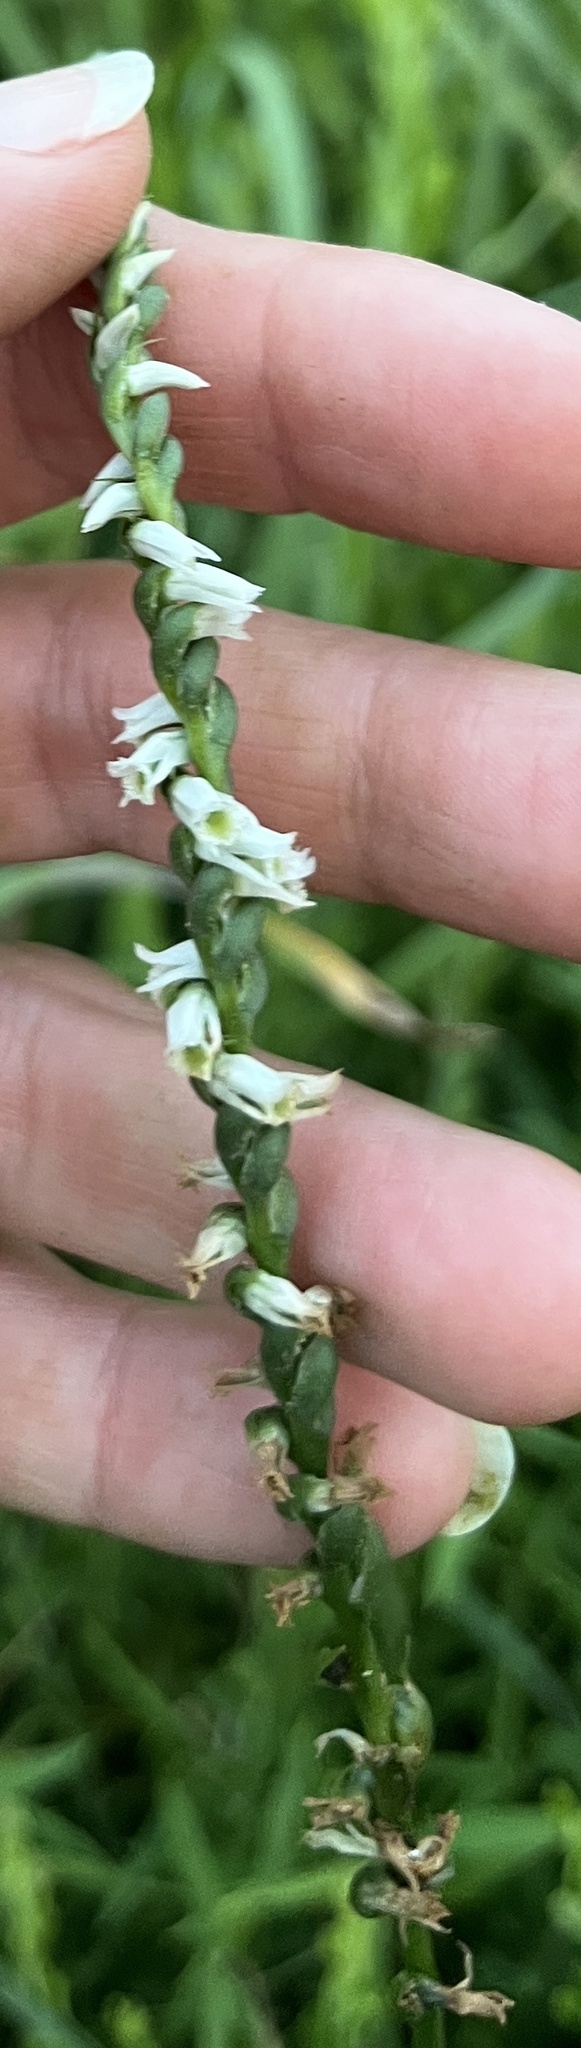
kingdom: Plantae
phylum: Tracheophyta
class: Liliopsida
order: Asparagales
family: Orchidaceae
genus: Spiranthes
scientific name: Spiranthes lacera
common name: Northern slender ladies'-tresses
